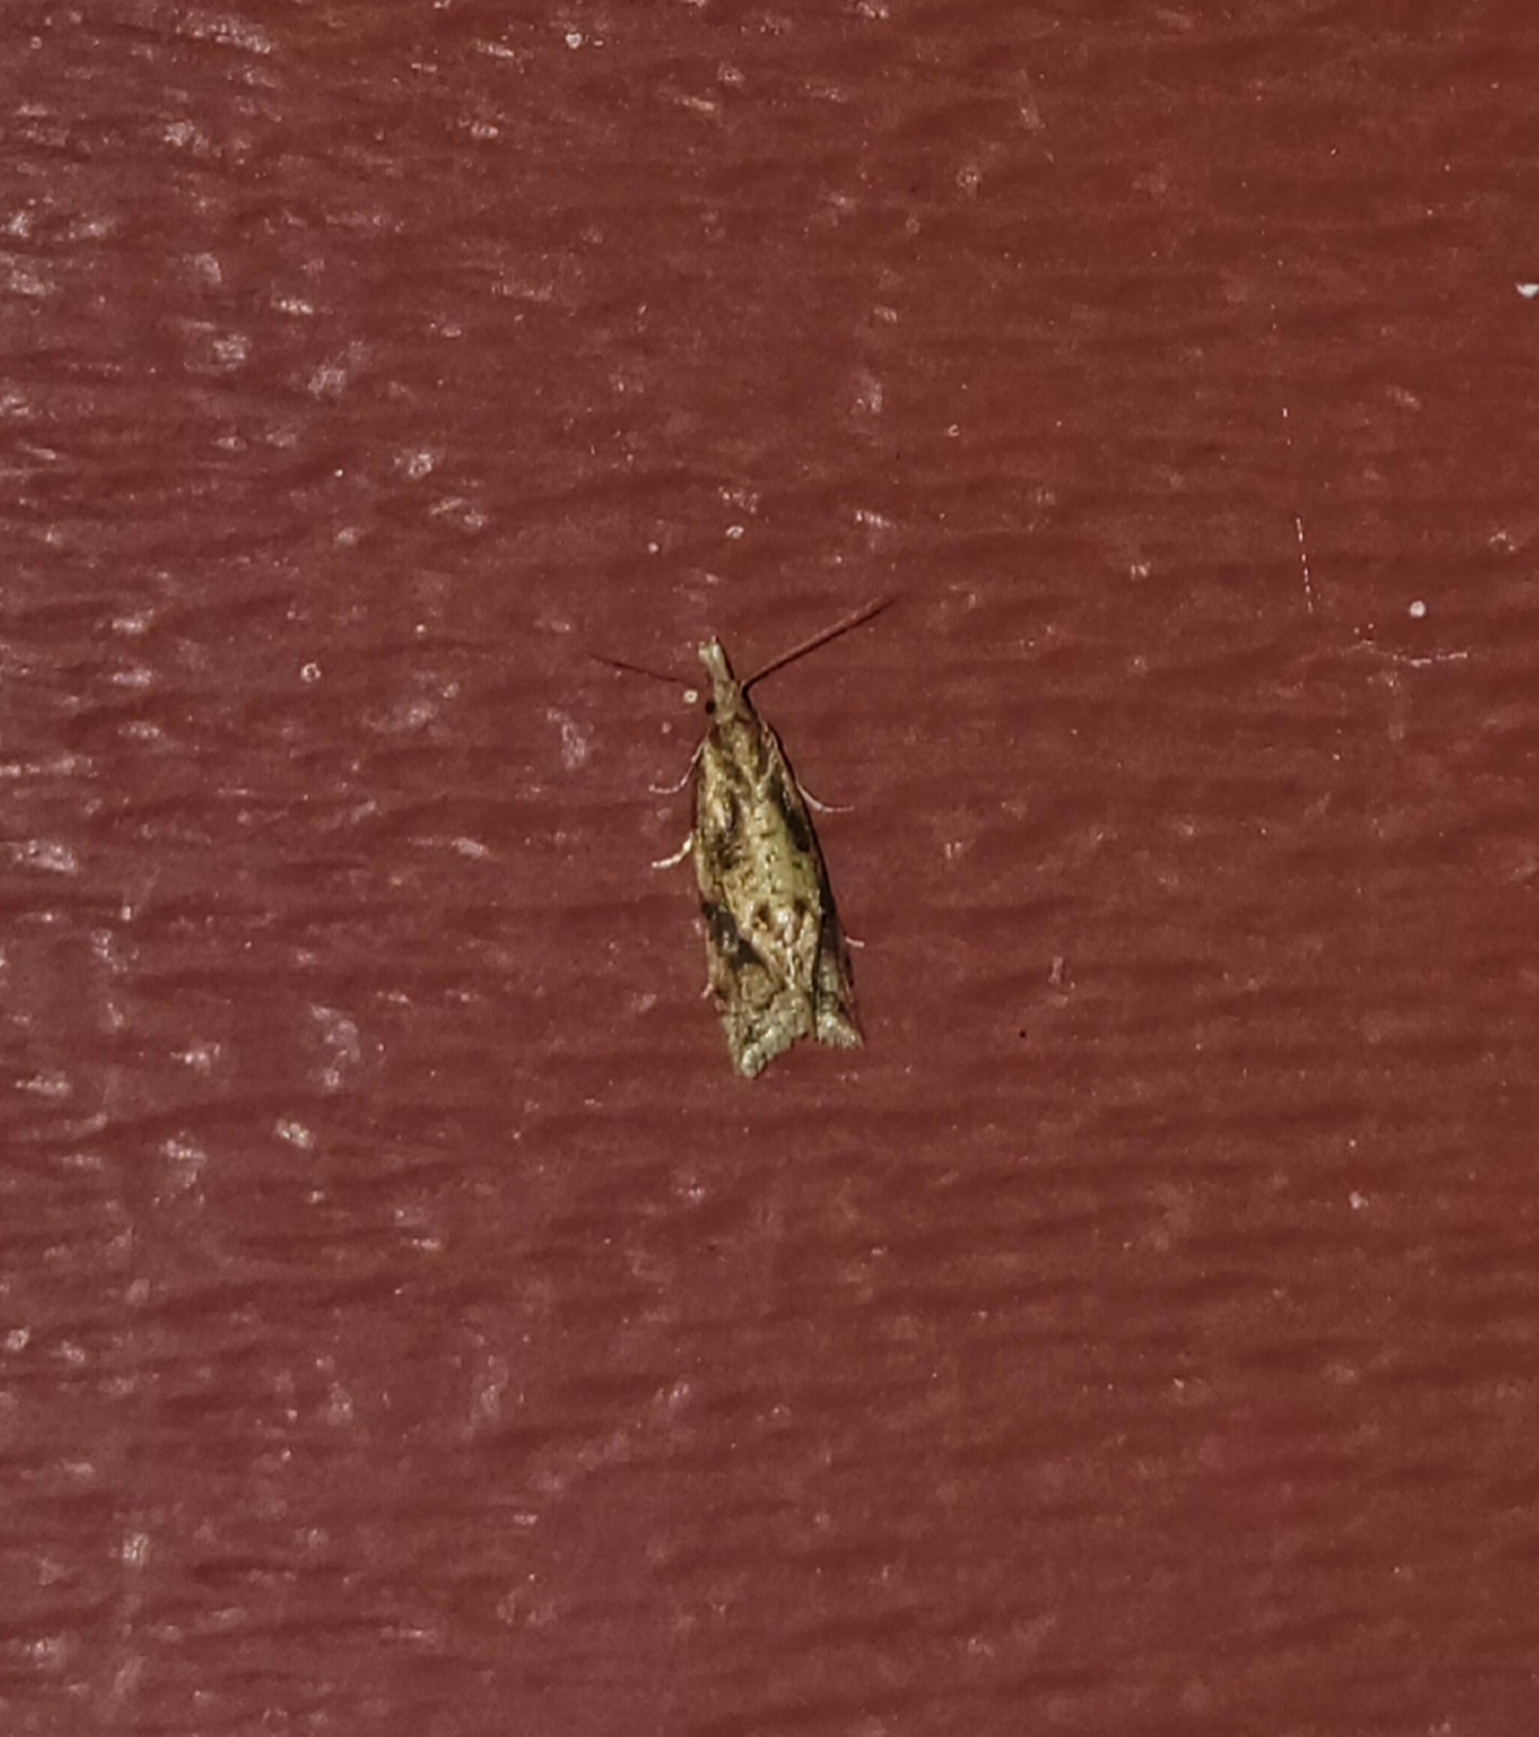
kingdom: Animalia
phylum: Arthropoda
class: Insecta
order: Lepidoptera
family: Tortricidae
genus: Aethes
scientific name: Aethes biscana
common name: Reddish aethes
